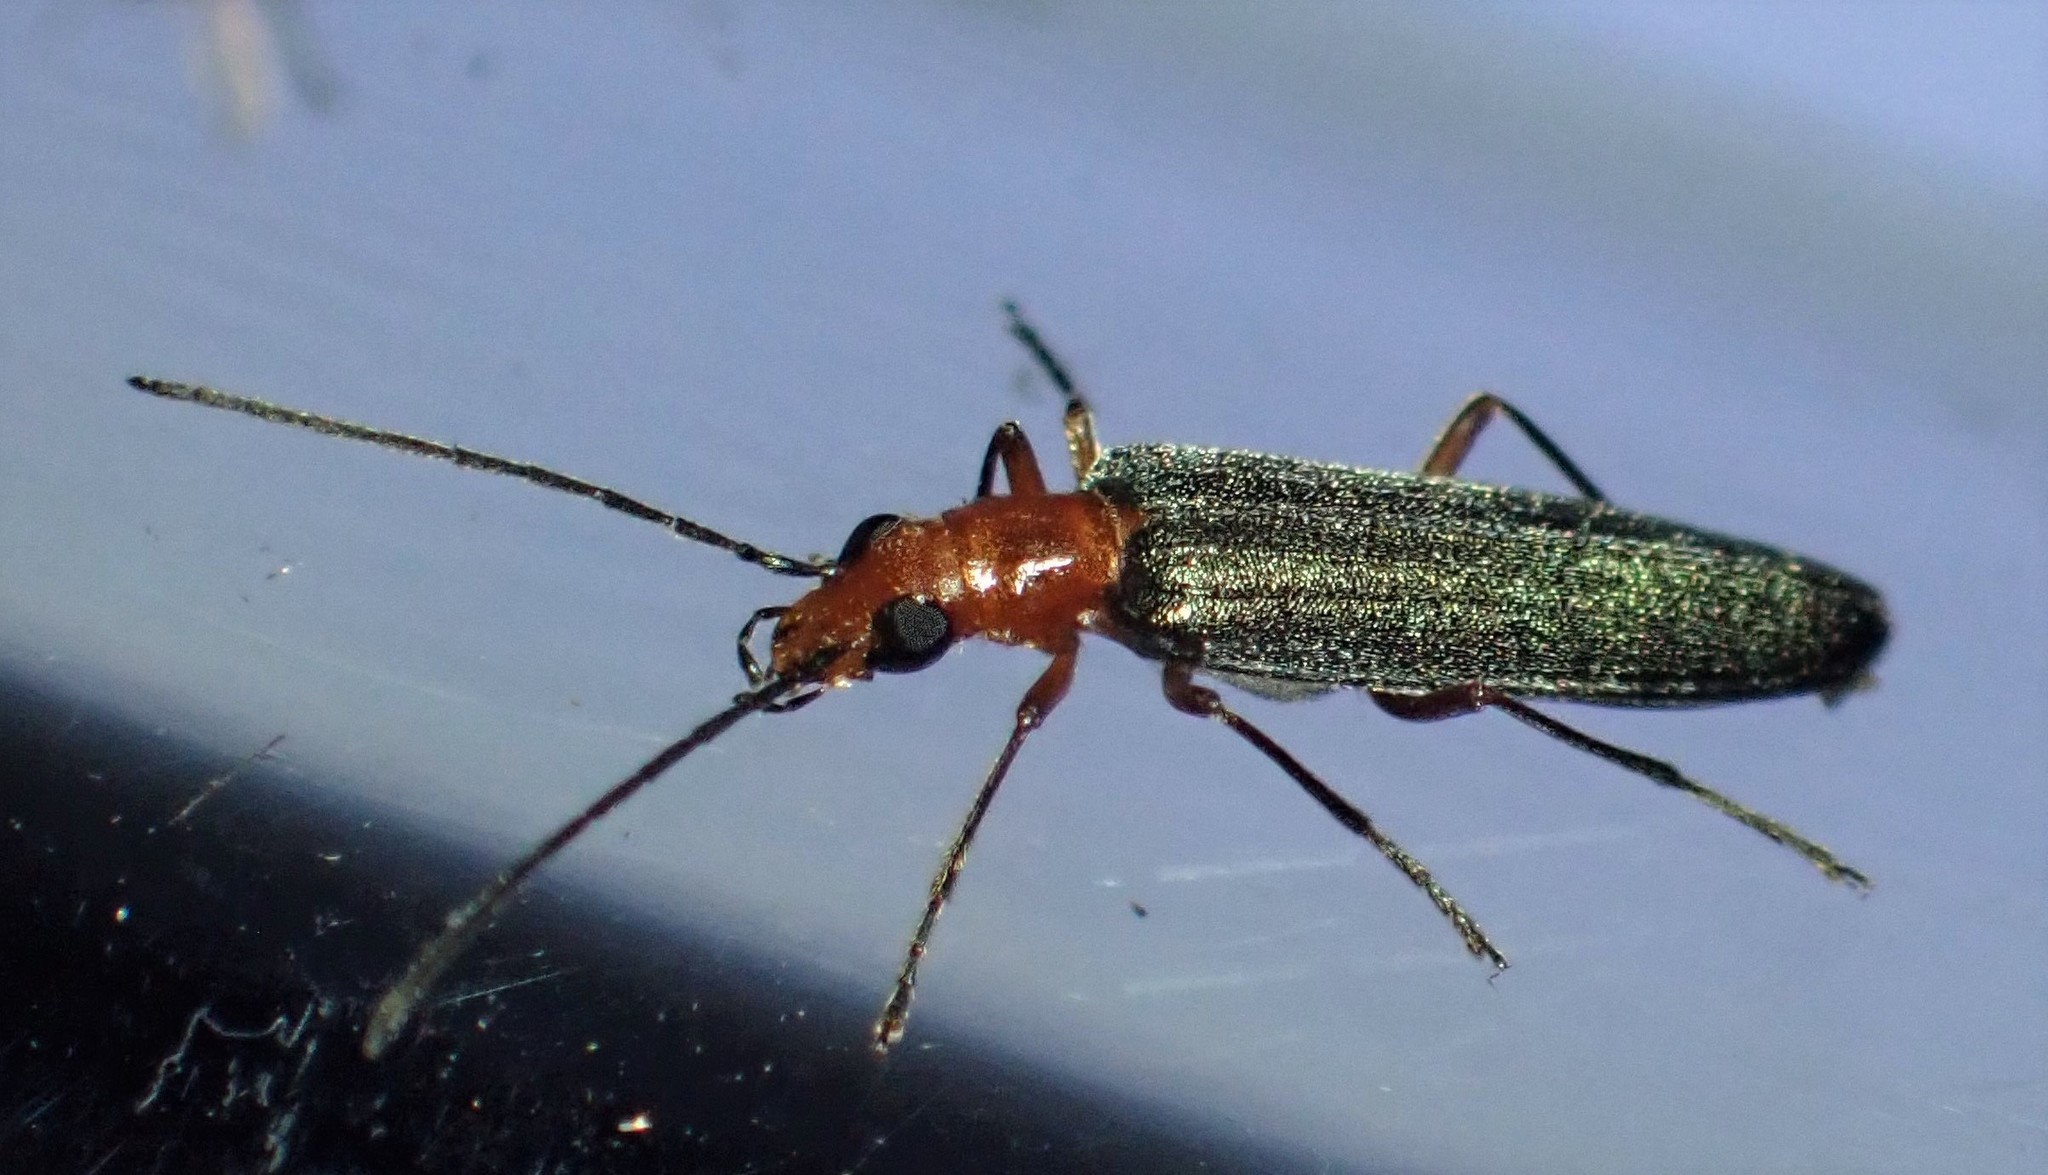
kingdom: Animalia
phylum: Arthropoda
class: Insecta
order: Coleoptera
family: Oedemeridae
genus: Nacerdes
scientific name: Nacerdes
